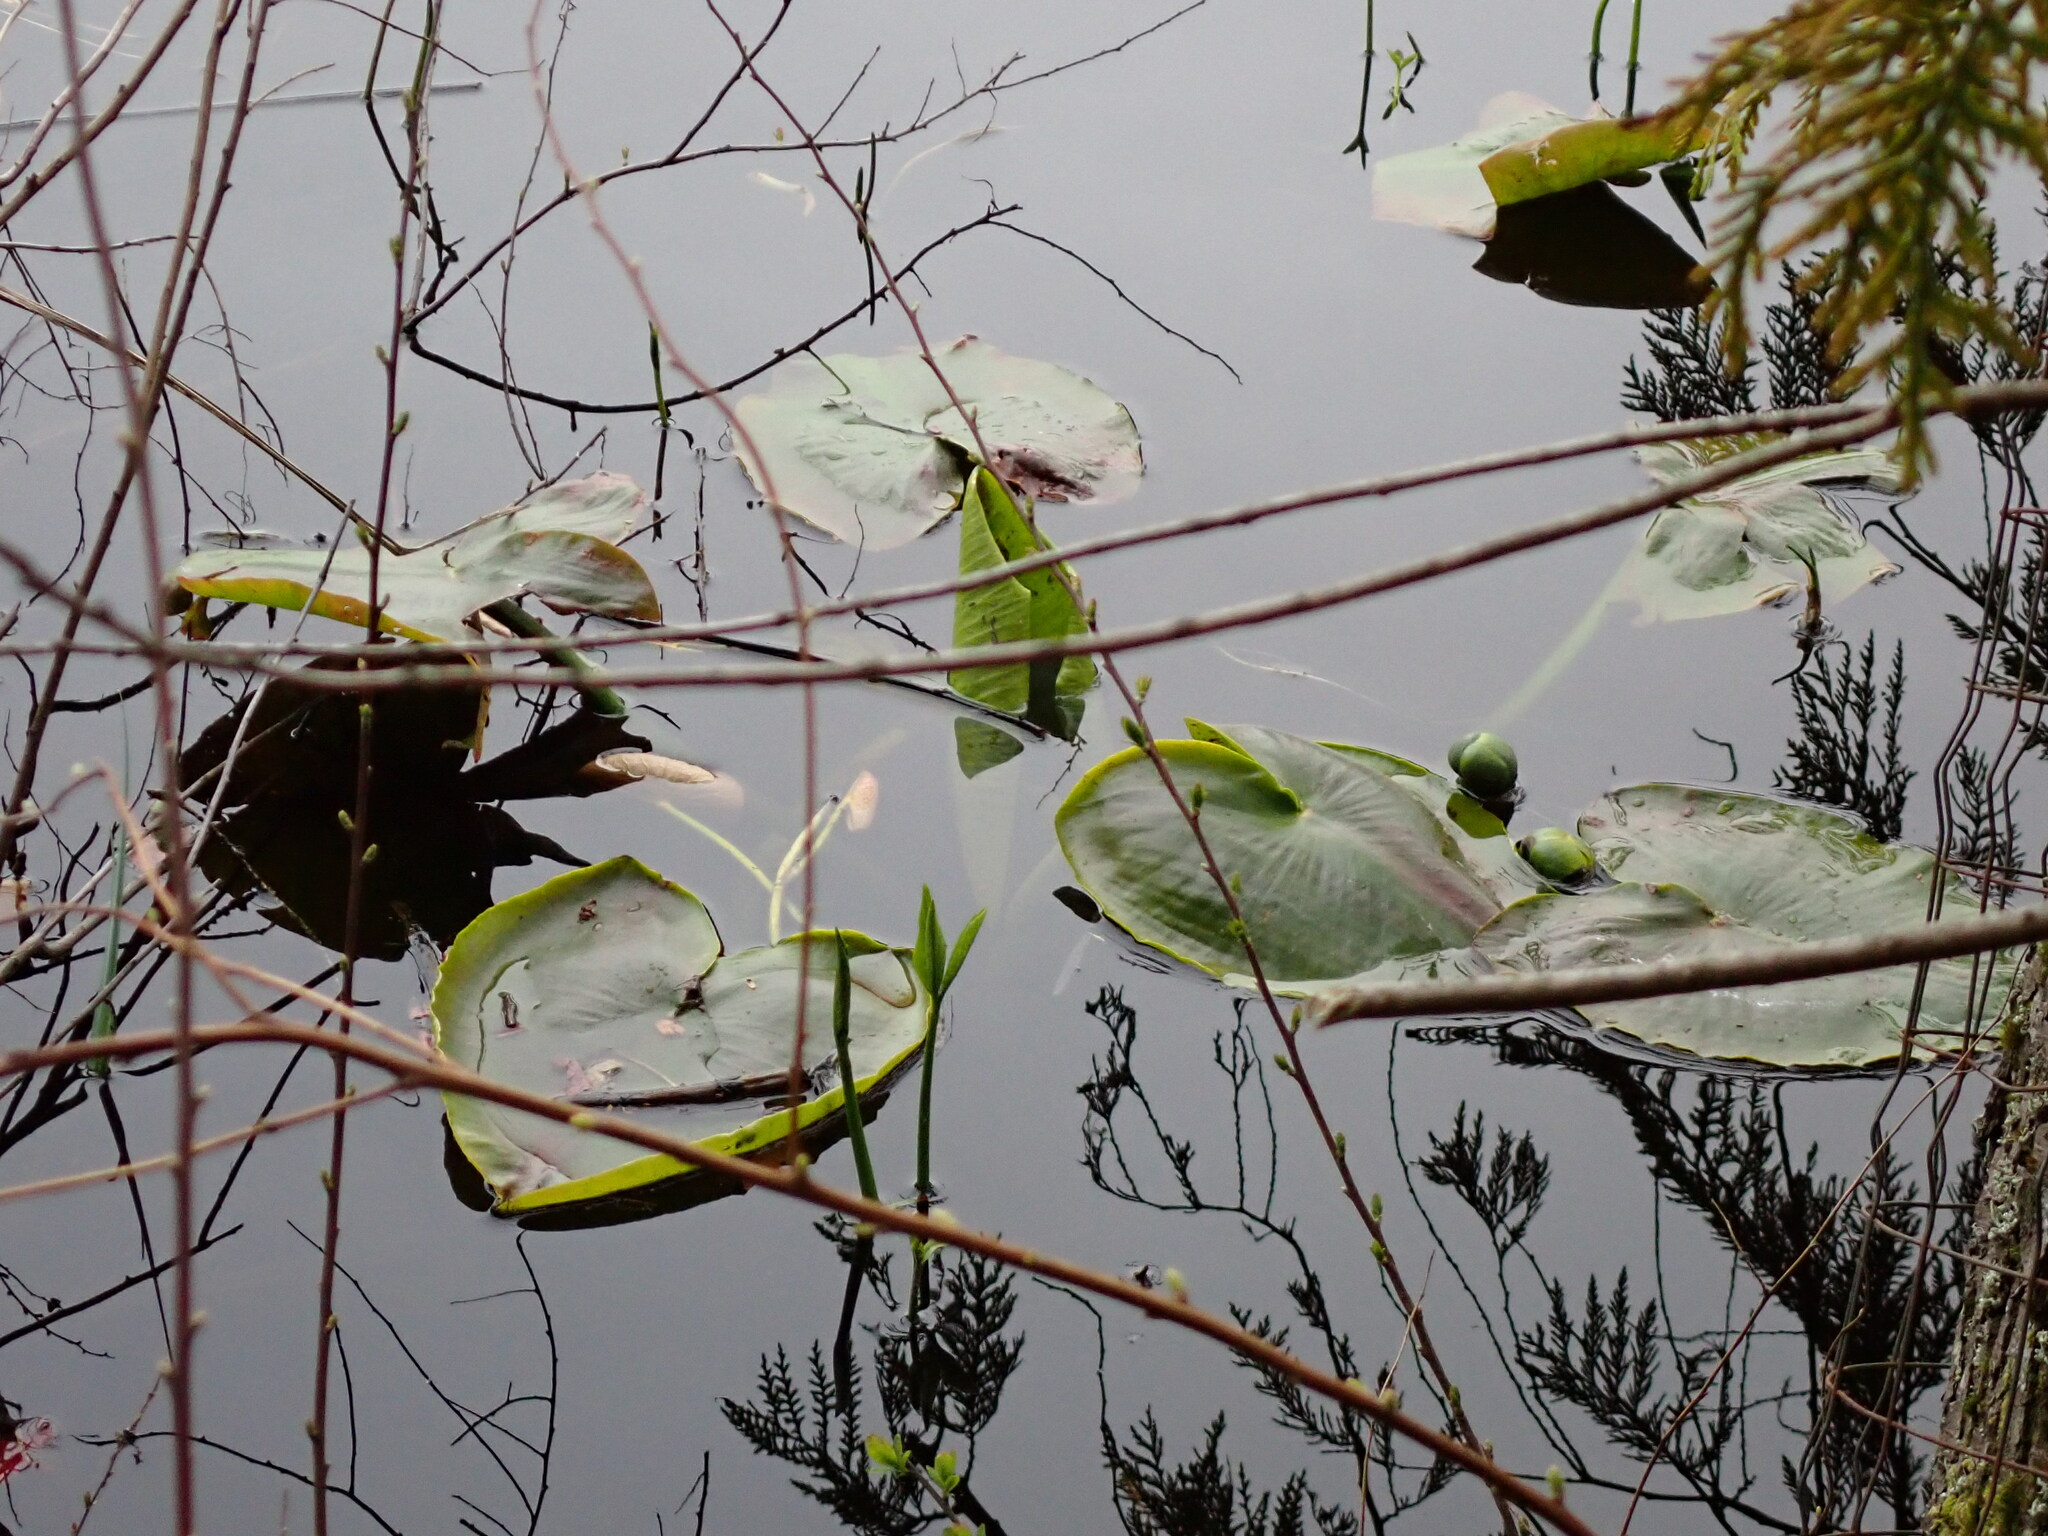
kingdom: Plantae
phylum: Tracheophyta
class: Magnoliopsida
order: Nymphaeales
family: Nymphaeaceae
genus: Nuphar
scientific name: Nuphar polysepala
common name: Rocky mountain cow-lily
